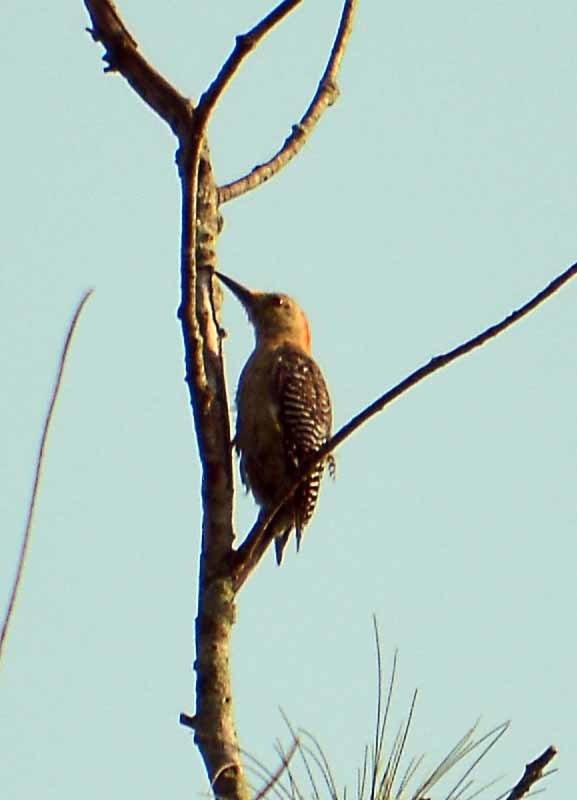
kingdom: Animalia
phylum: Chordata
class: Aves
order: Piciformes
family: Picidae
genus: Melanerpes
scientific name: Melanerpes aurifrons
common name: Golden-fronted woodpecker
